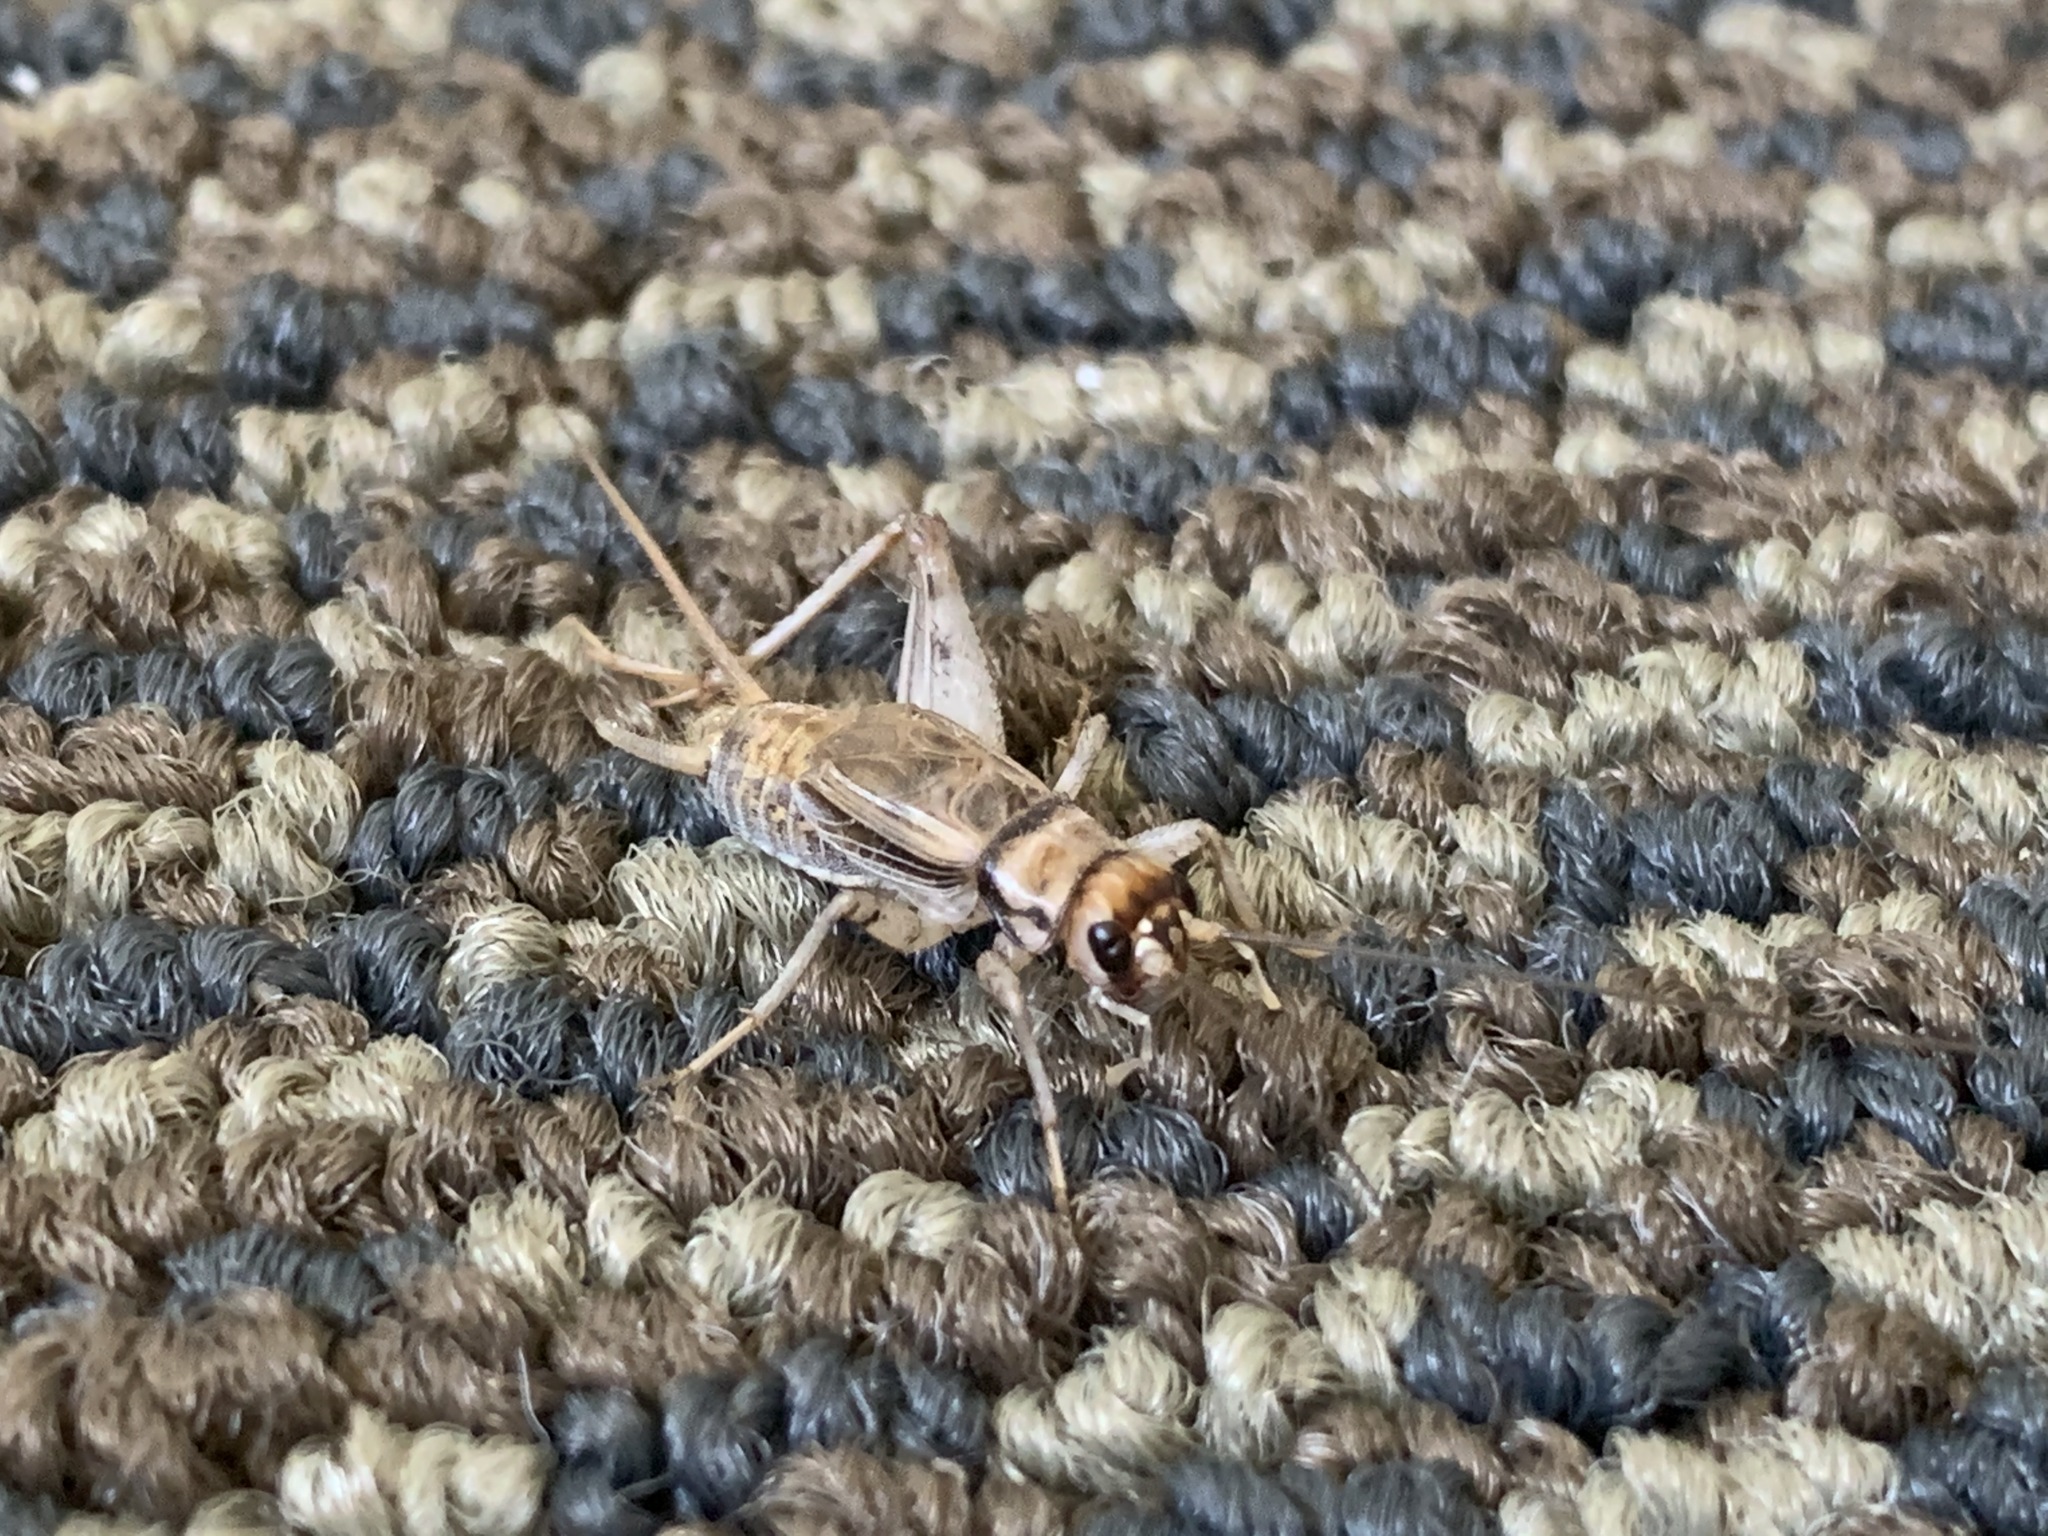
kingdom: Animalia
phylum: Arthropoda
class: Insecta
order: Orthoptera
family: Gryllidae
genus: Gryllodes
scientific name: Gryllodes sigillatus
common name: Tropical house cricket
